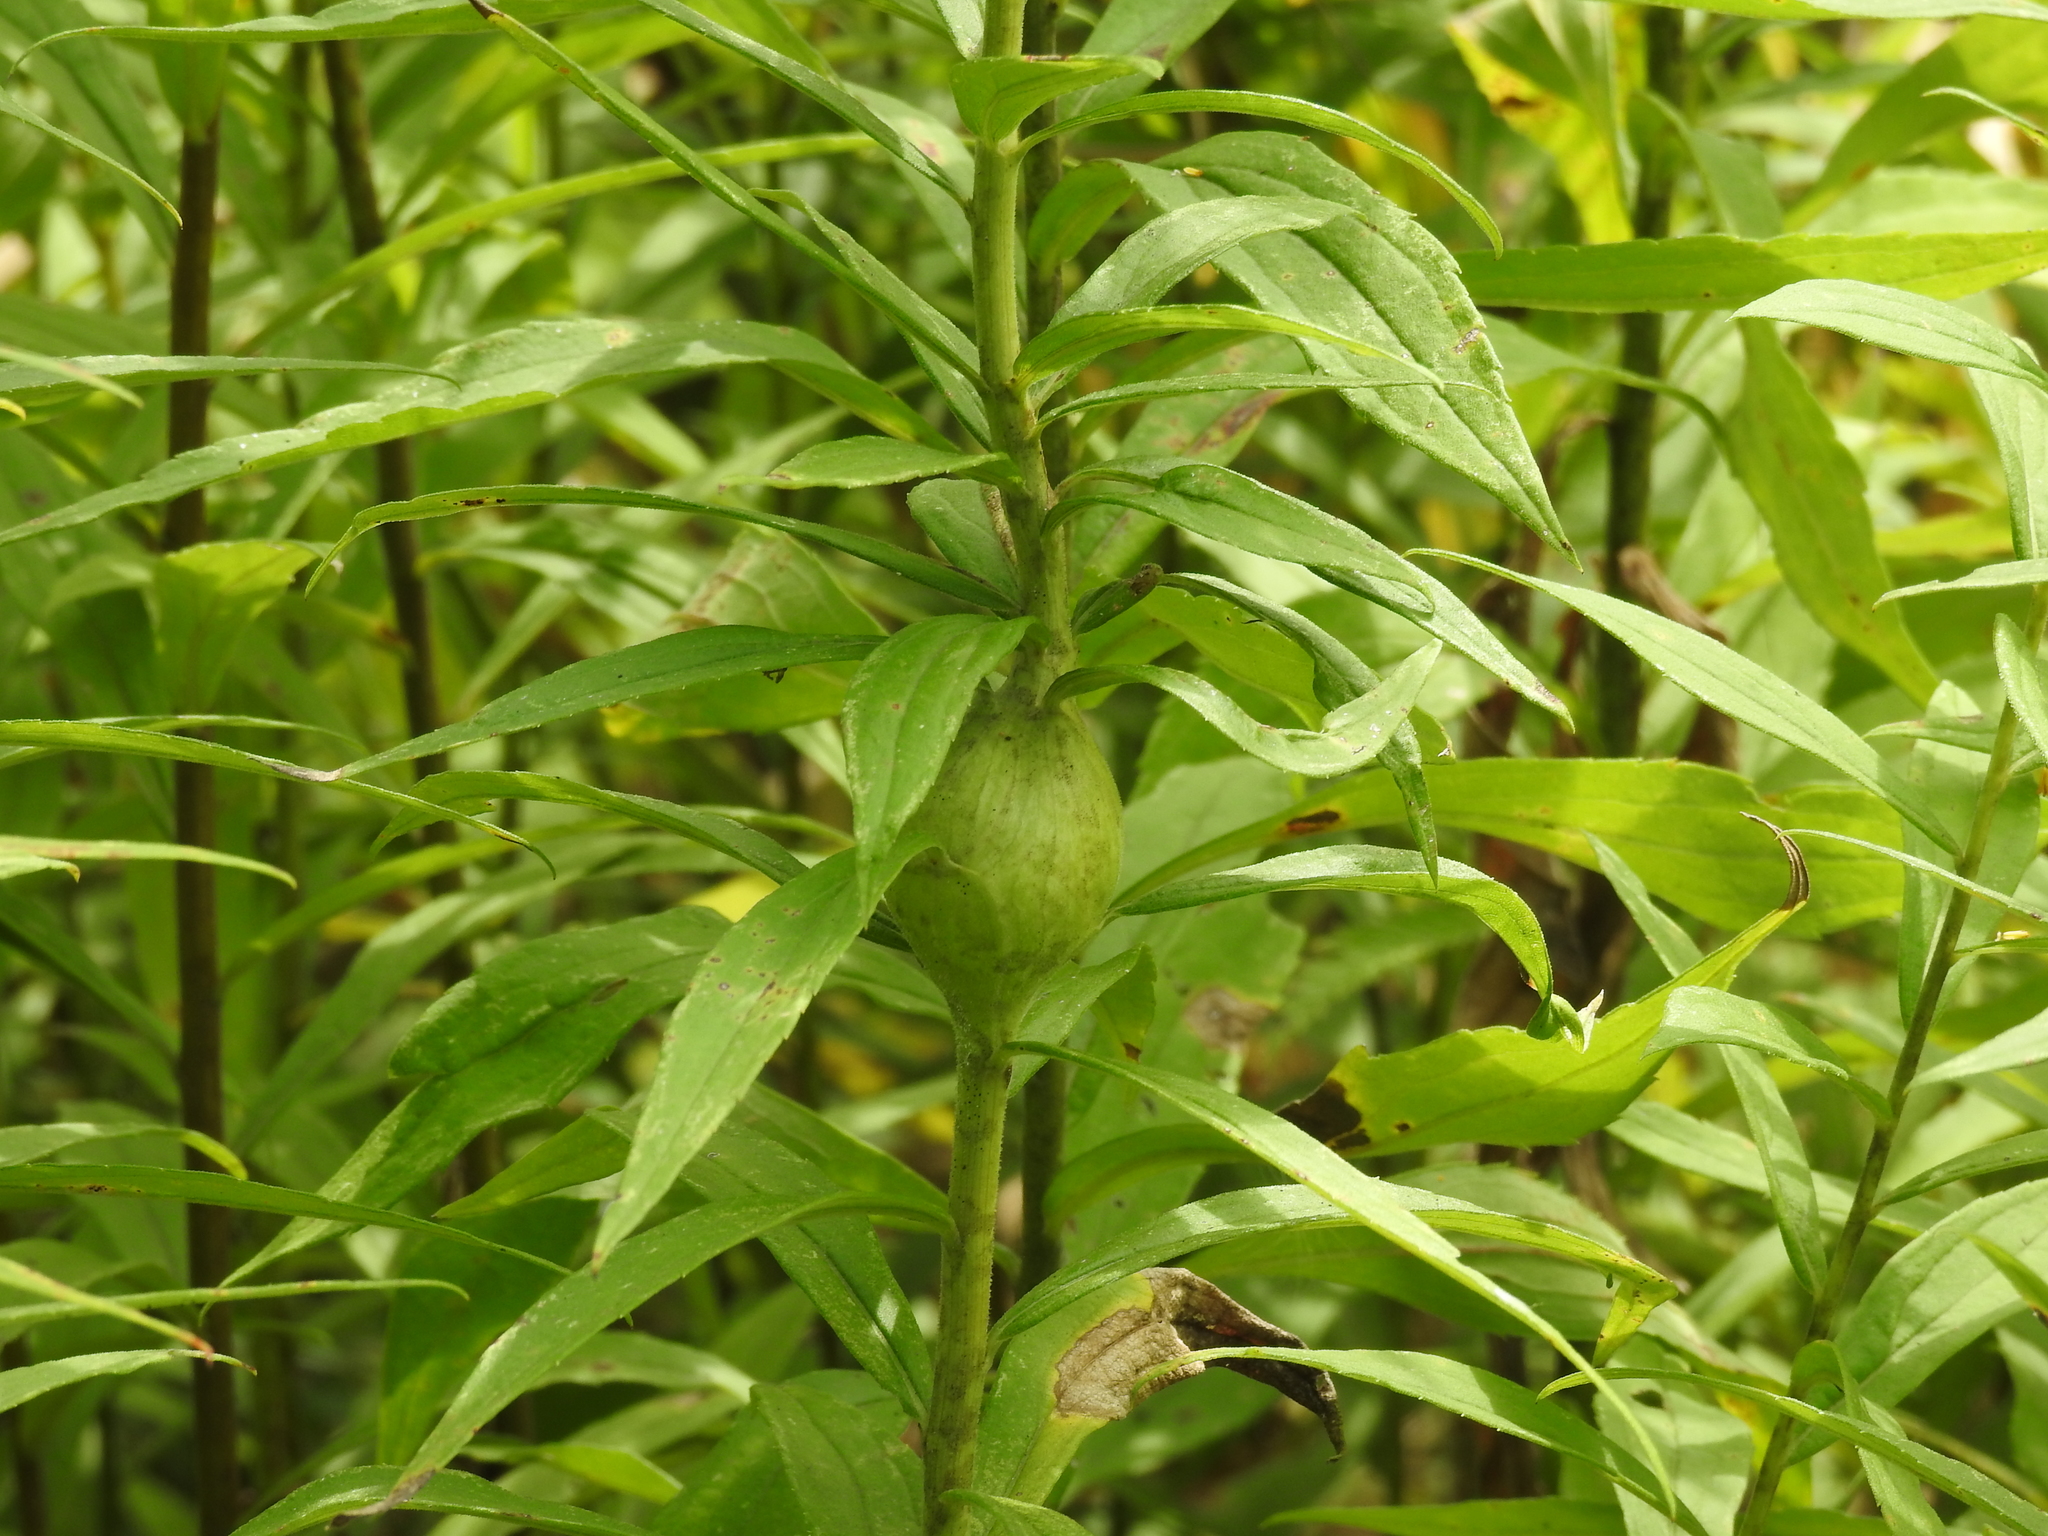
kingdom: Animalia
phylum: Arthropoda
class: Insecta
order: Diptera
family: Tephritidae
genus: Eurosta
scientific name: Eurosta solidaginis
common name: Goldenrod gall fly
